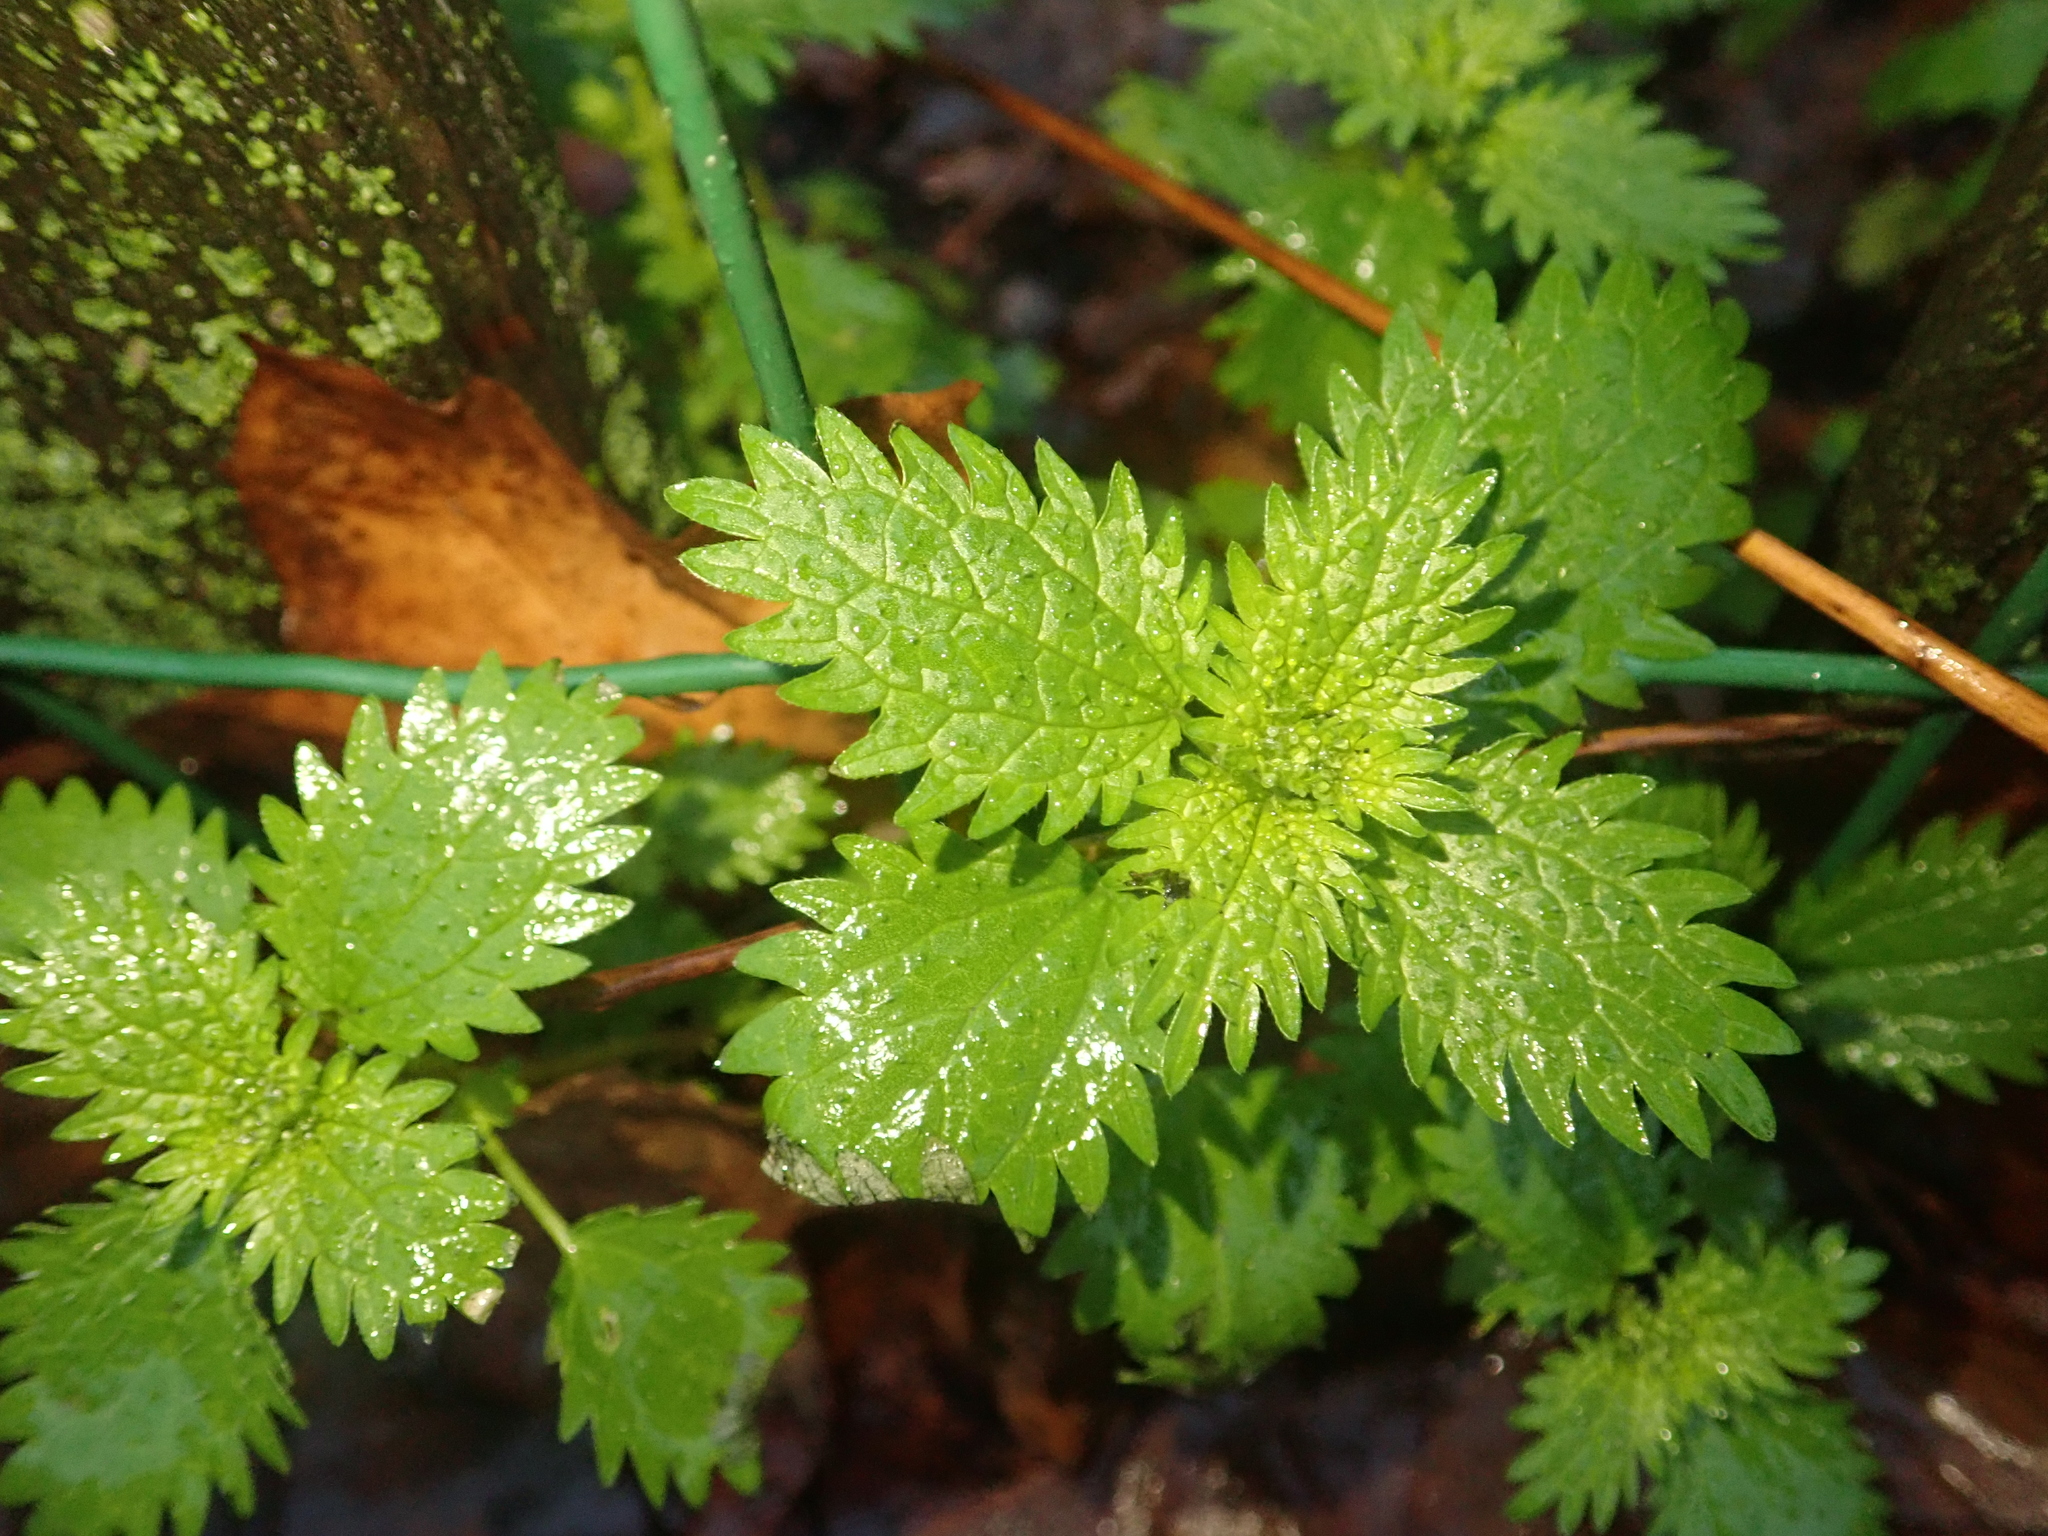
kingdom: Plantae
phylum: Tracheophyta
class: Magnoliopsida
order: Rosales
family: Urticaceae
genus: Urtica
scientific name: Urtica urens
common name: Dwarf nettle
